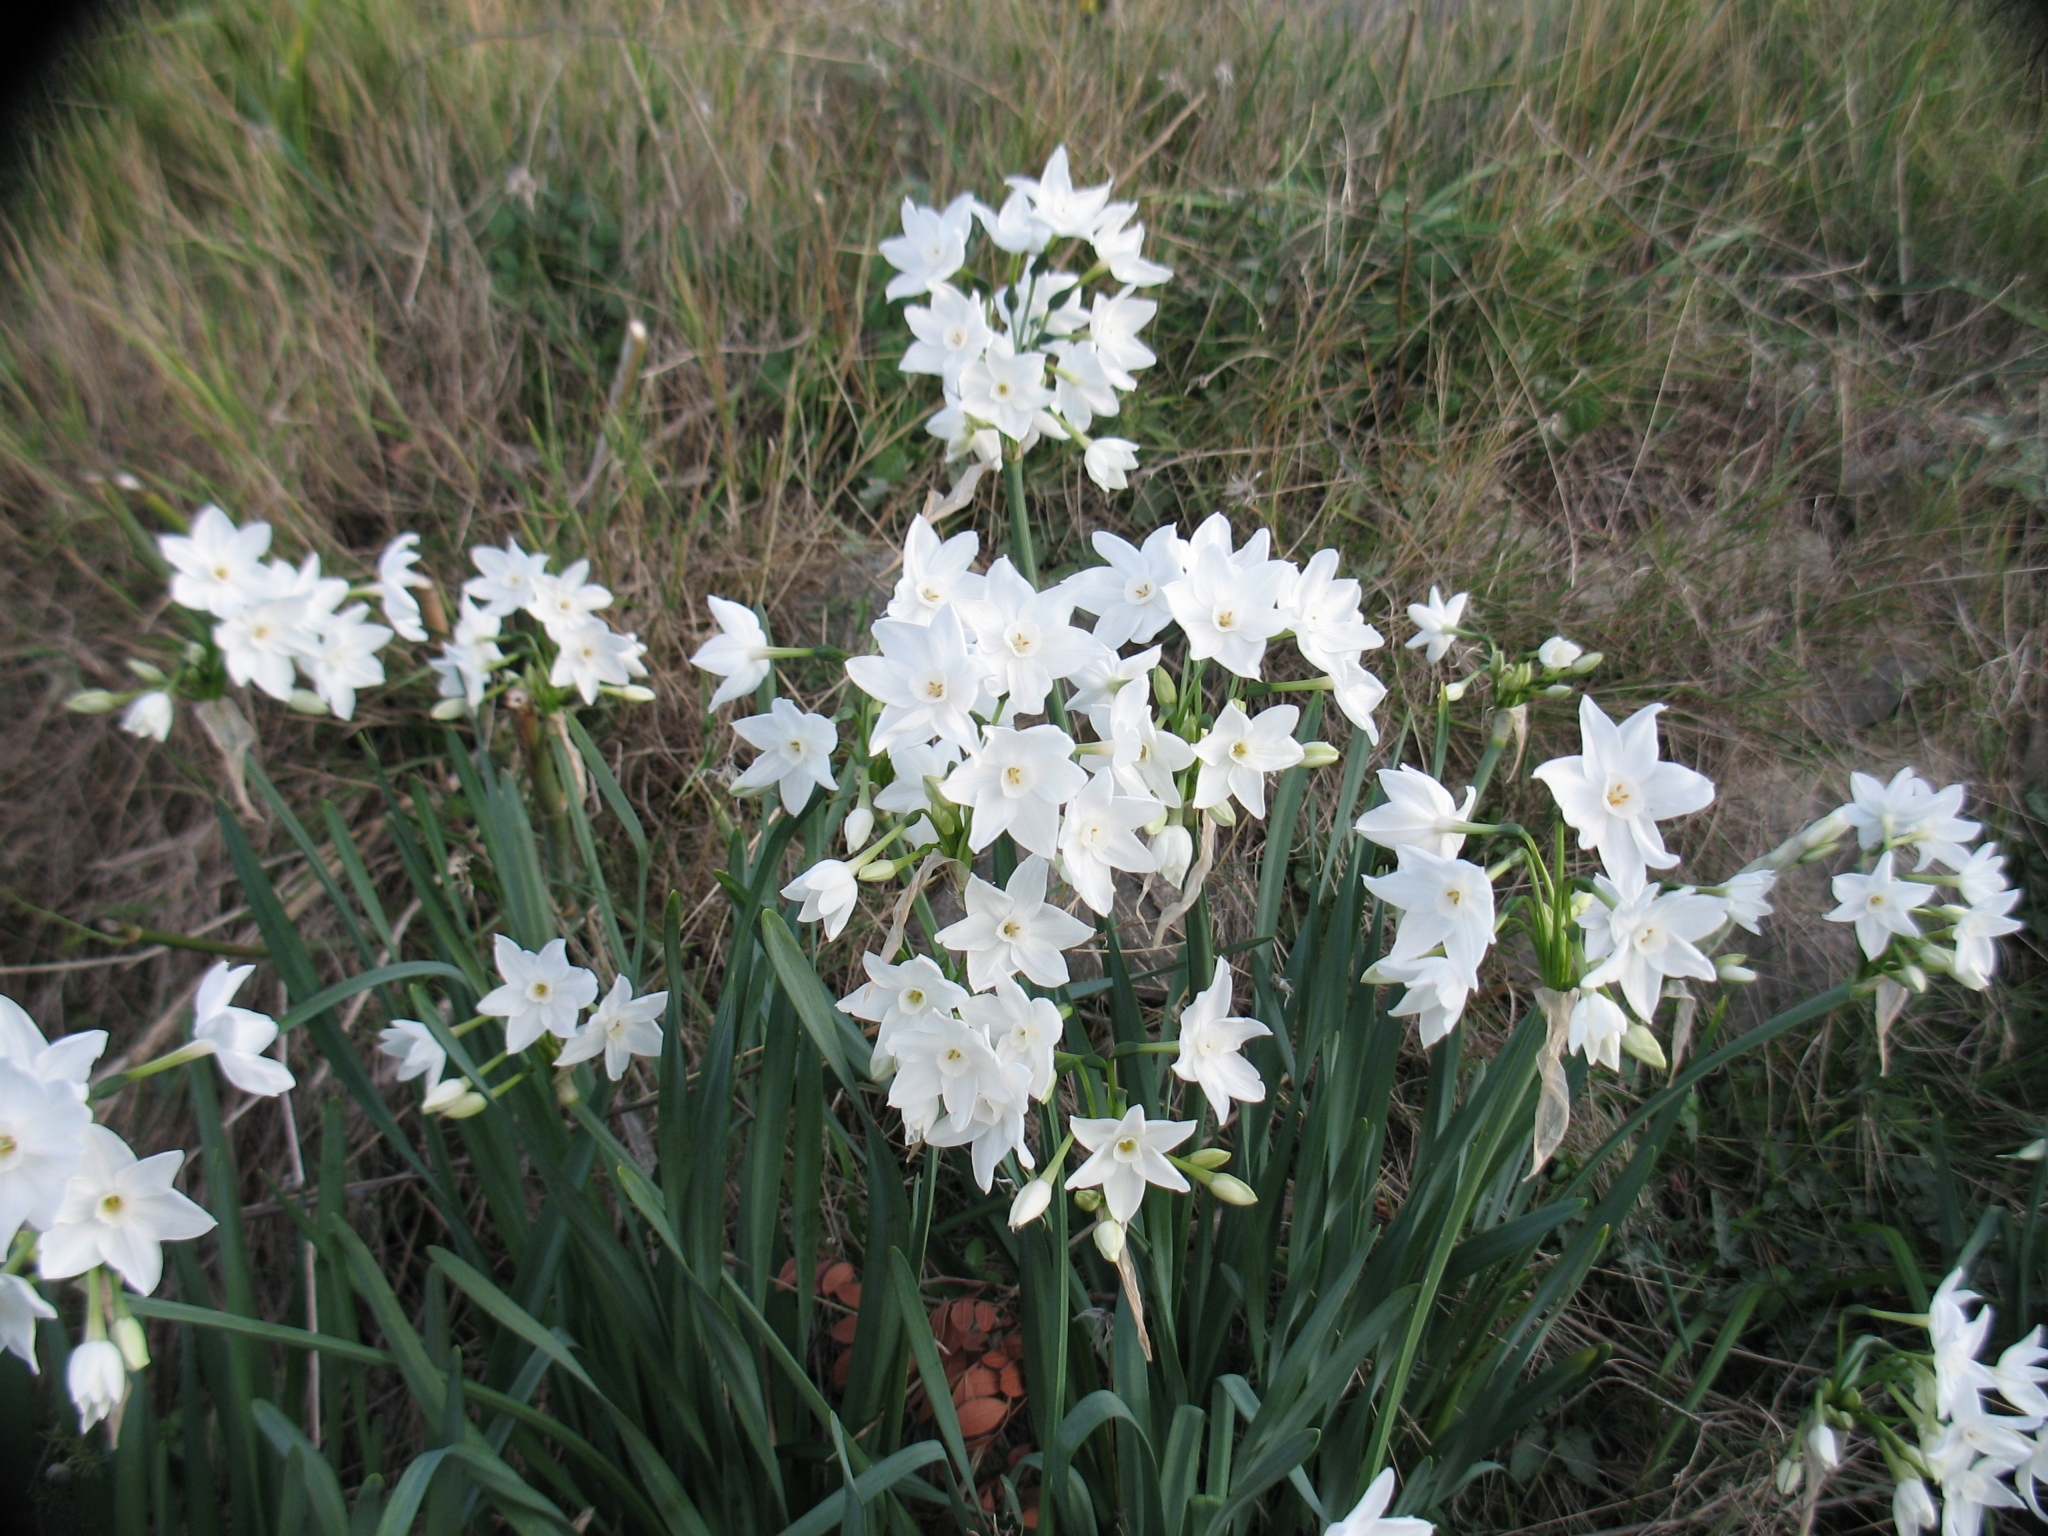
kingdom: Plantae
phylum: Tracheophyta
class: Liliopsida
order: Asparagales
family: Amaryllidaceae
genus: Narcissus
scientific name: Narcissus papyraceus
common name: Paper-white daffodil
